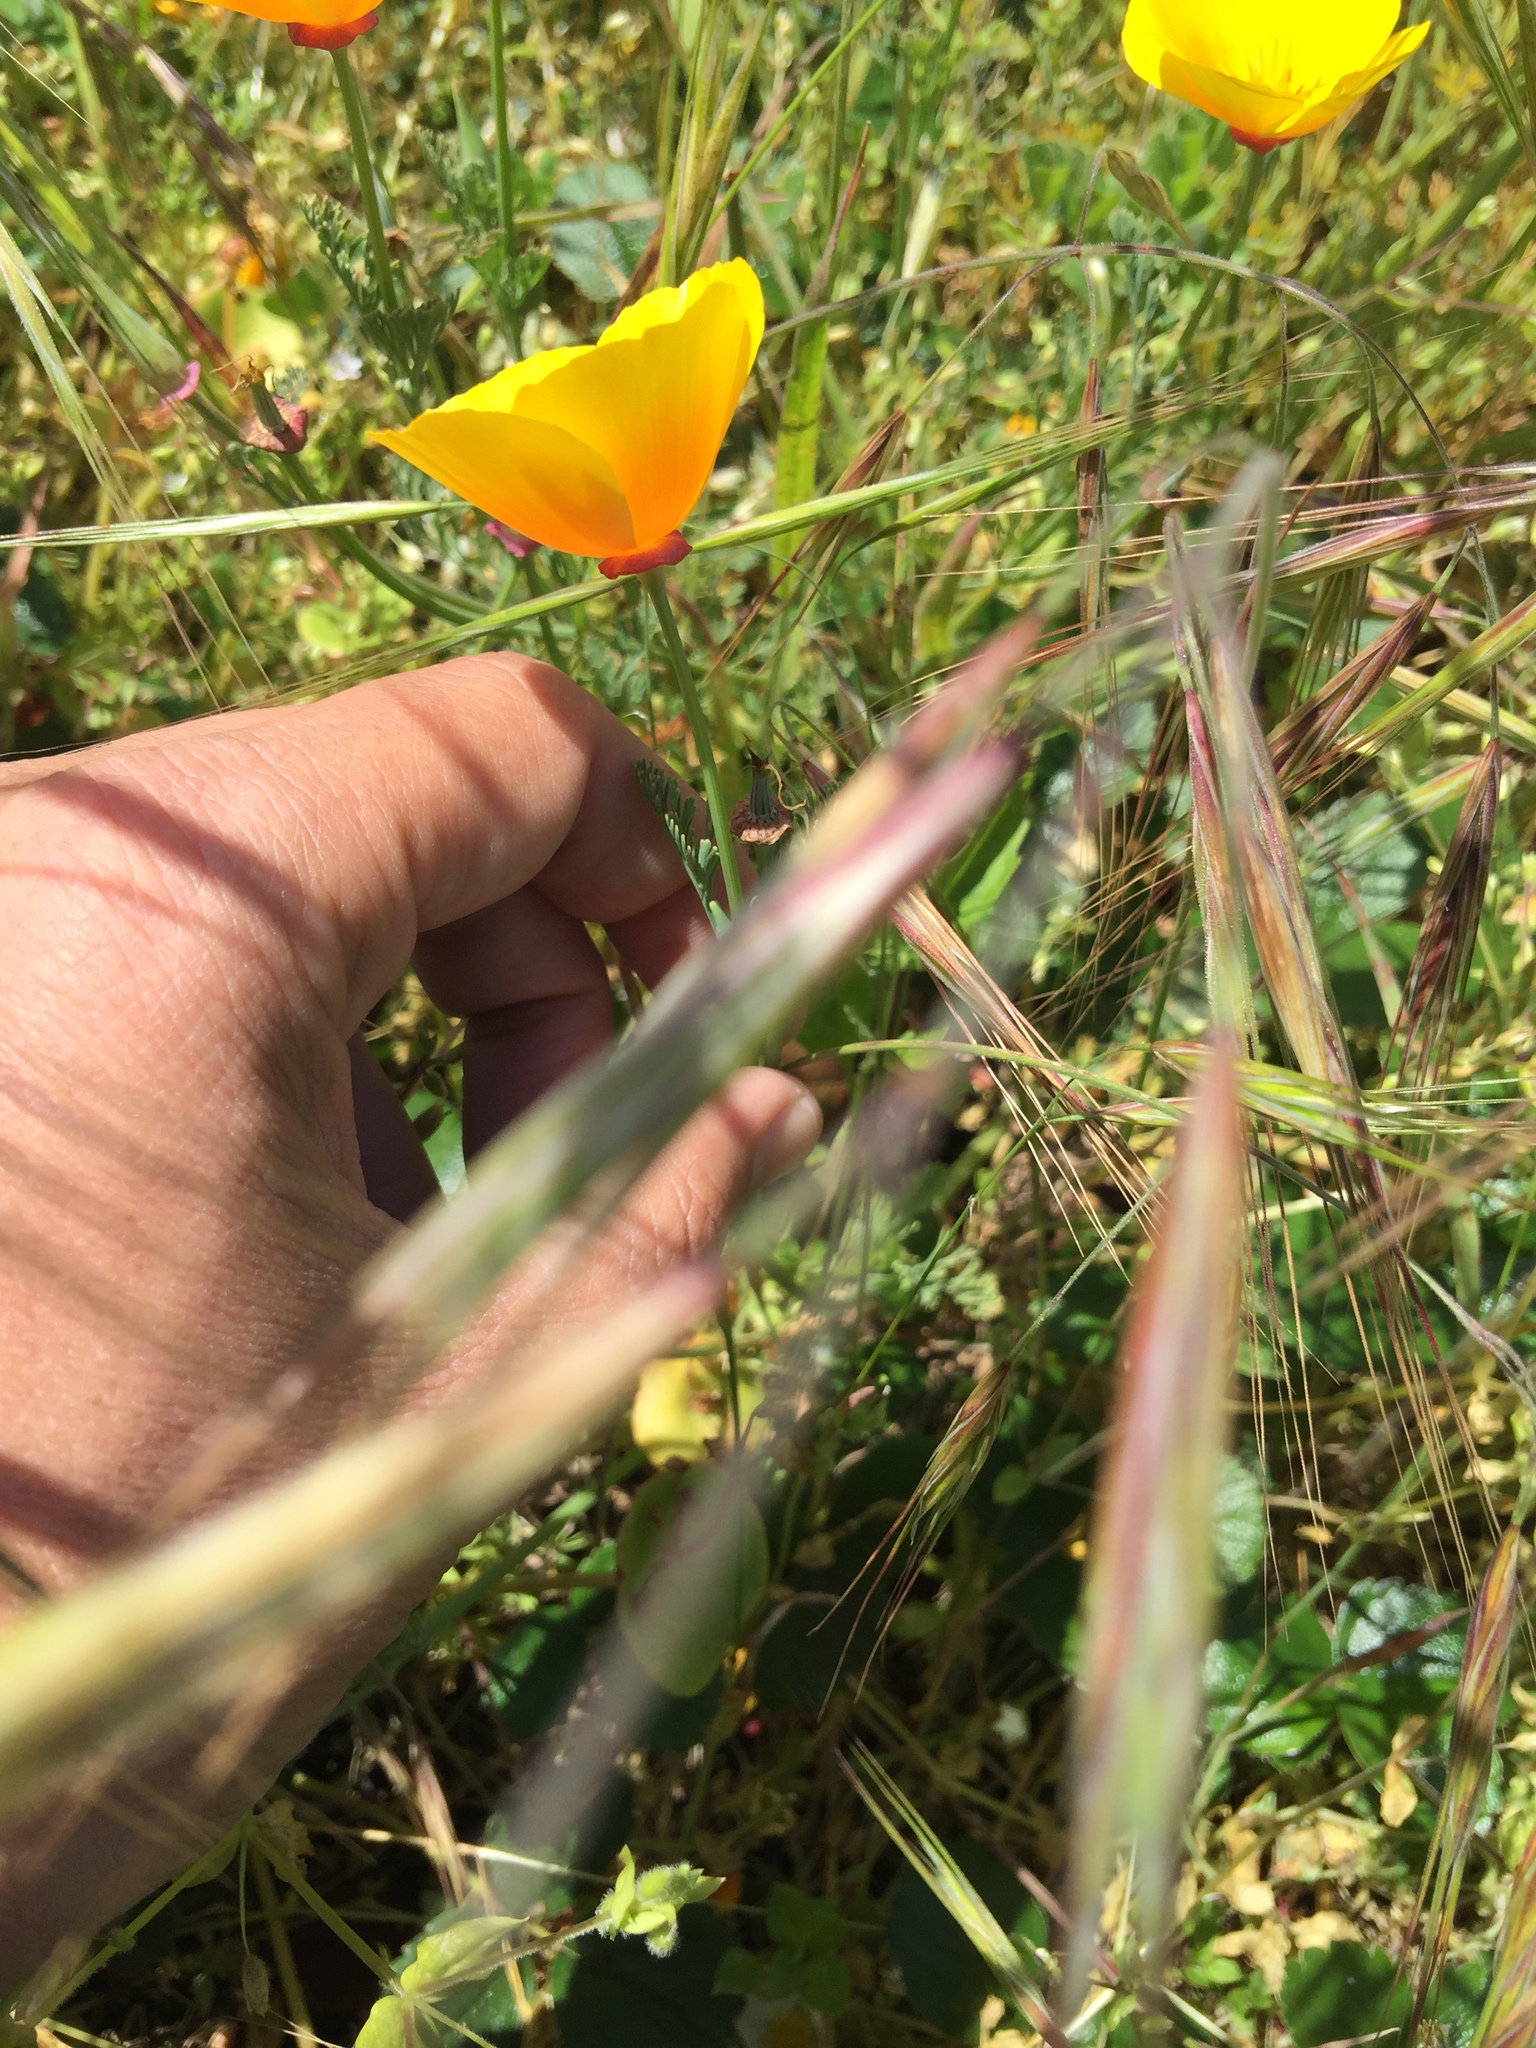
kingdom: Plantae
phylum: Tracheophyta
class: Magnoliopsida
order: Ranunculales
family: Papaveraceae
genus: Eschscholzia
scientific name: Eschscholzia californica
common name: California poppy
